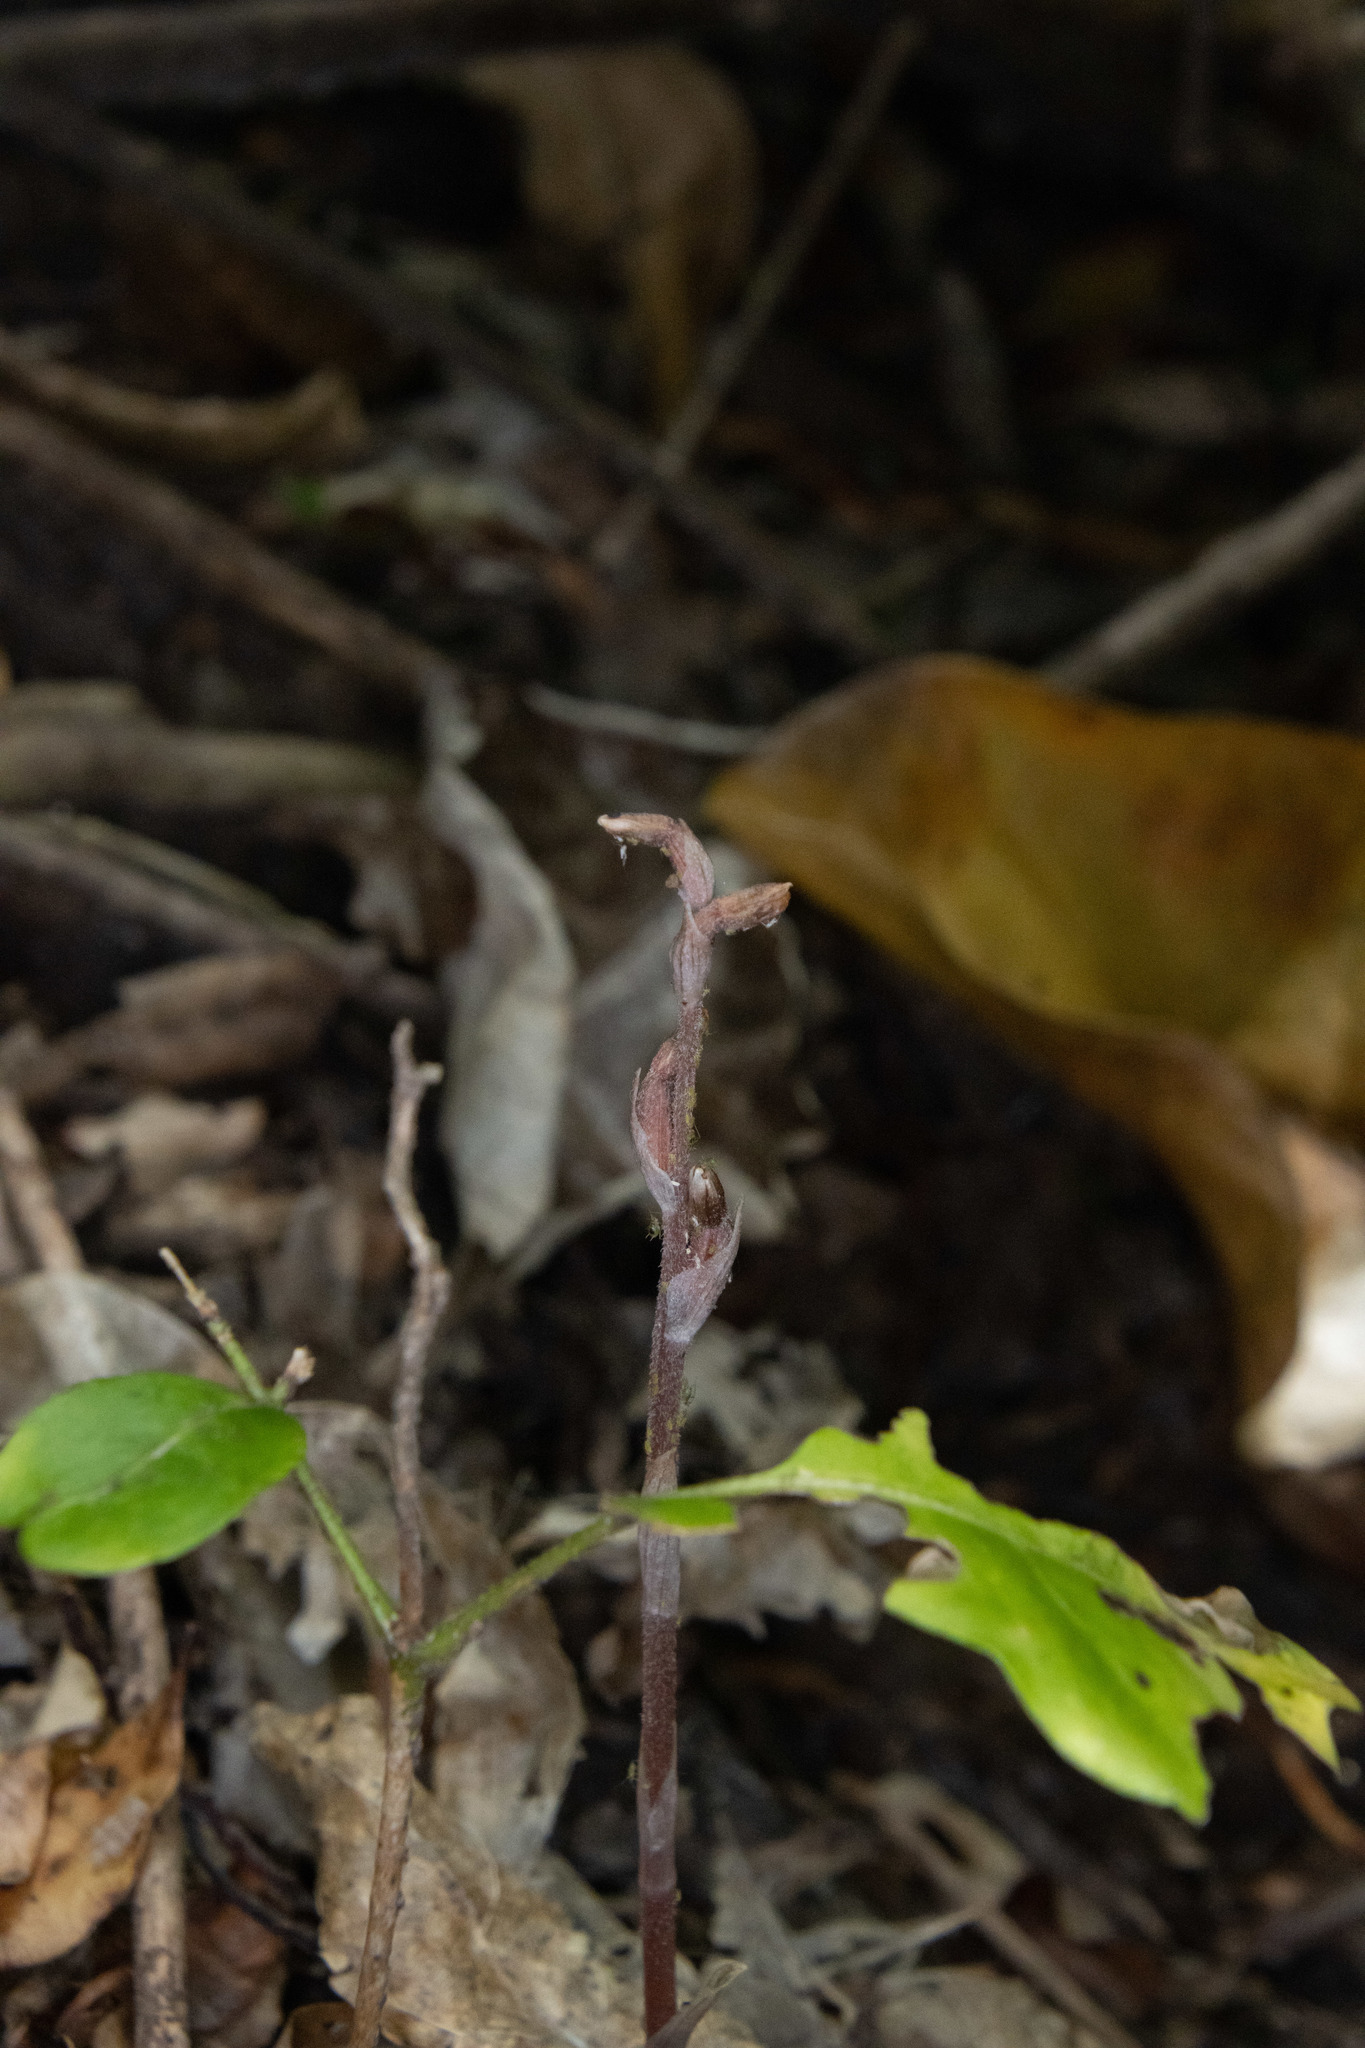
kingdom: Plantae
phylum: Tracheophyta
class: Liliopsida
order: Asparagales
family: Orchidaceae
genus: Danhatchia
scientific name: Danhatchia australis
